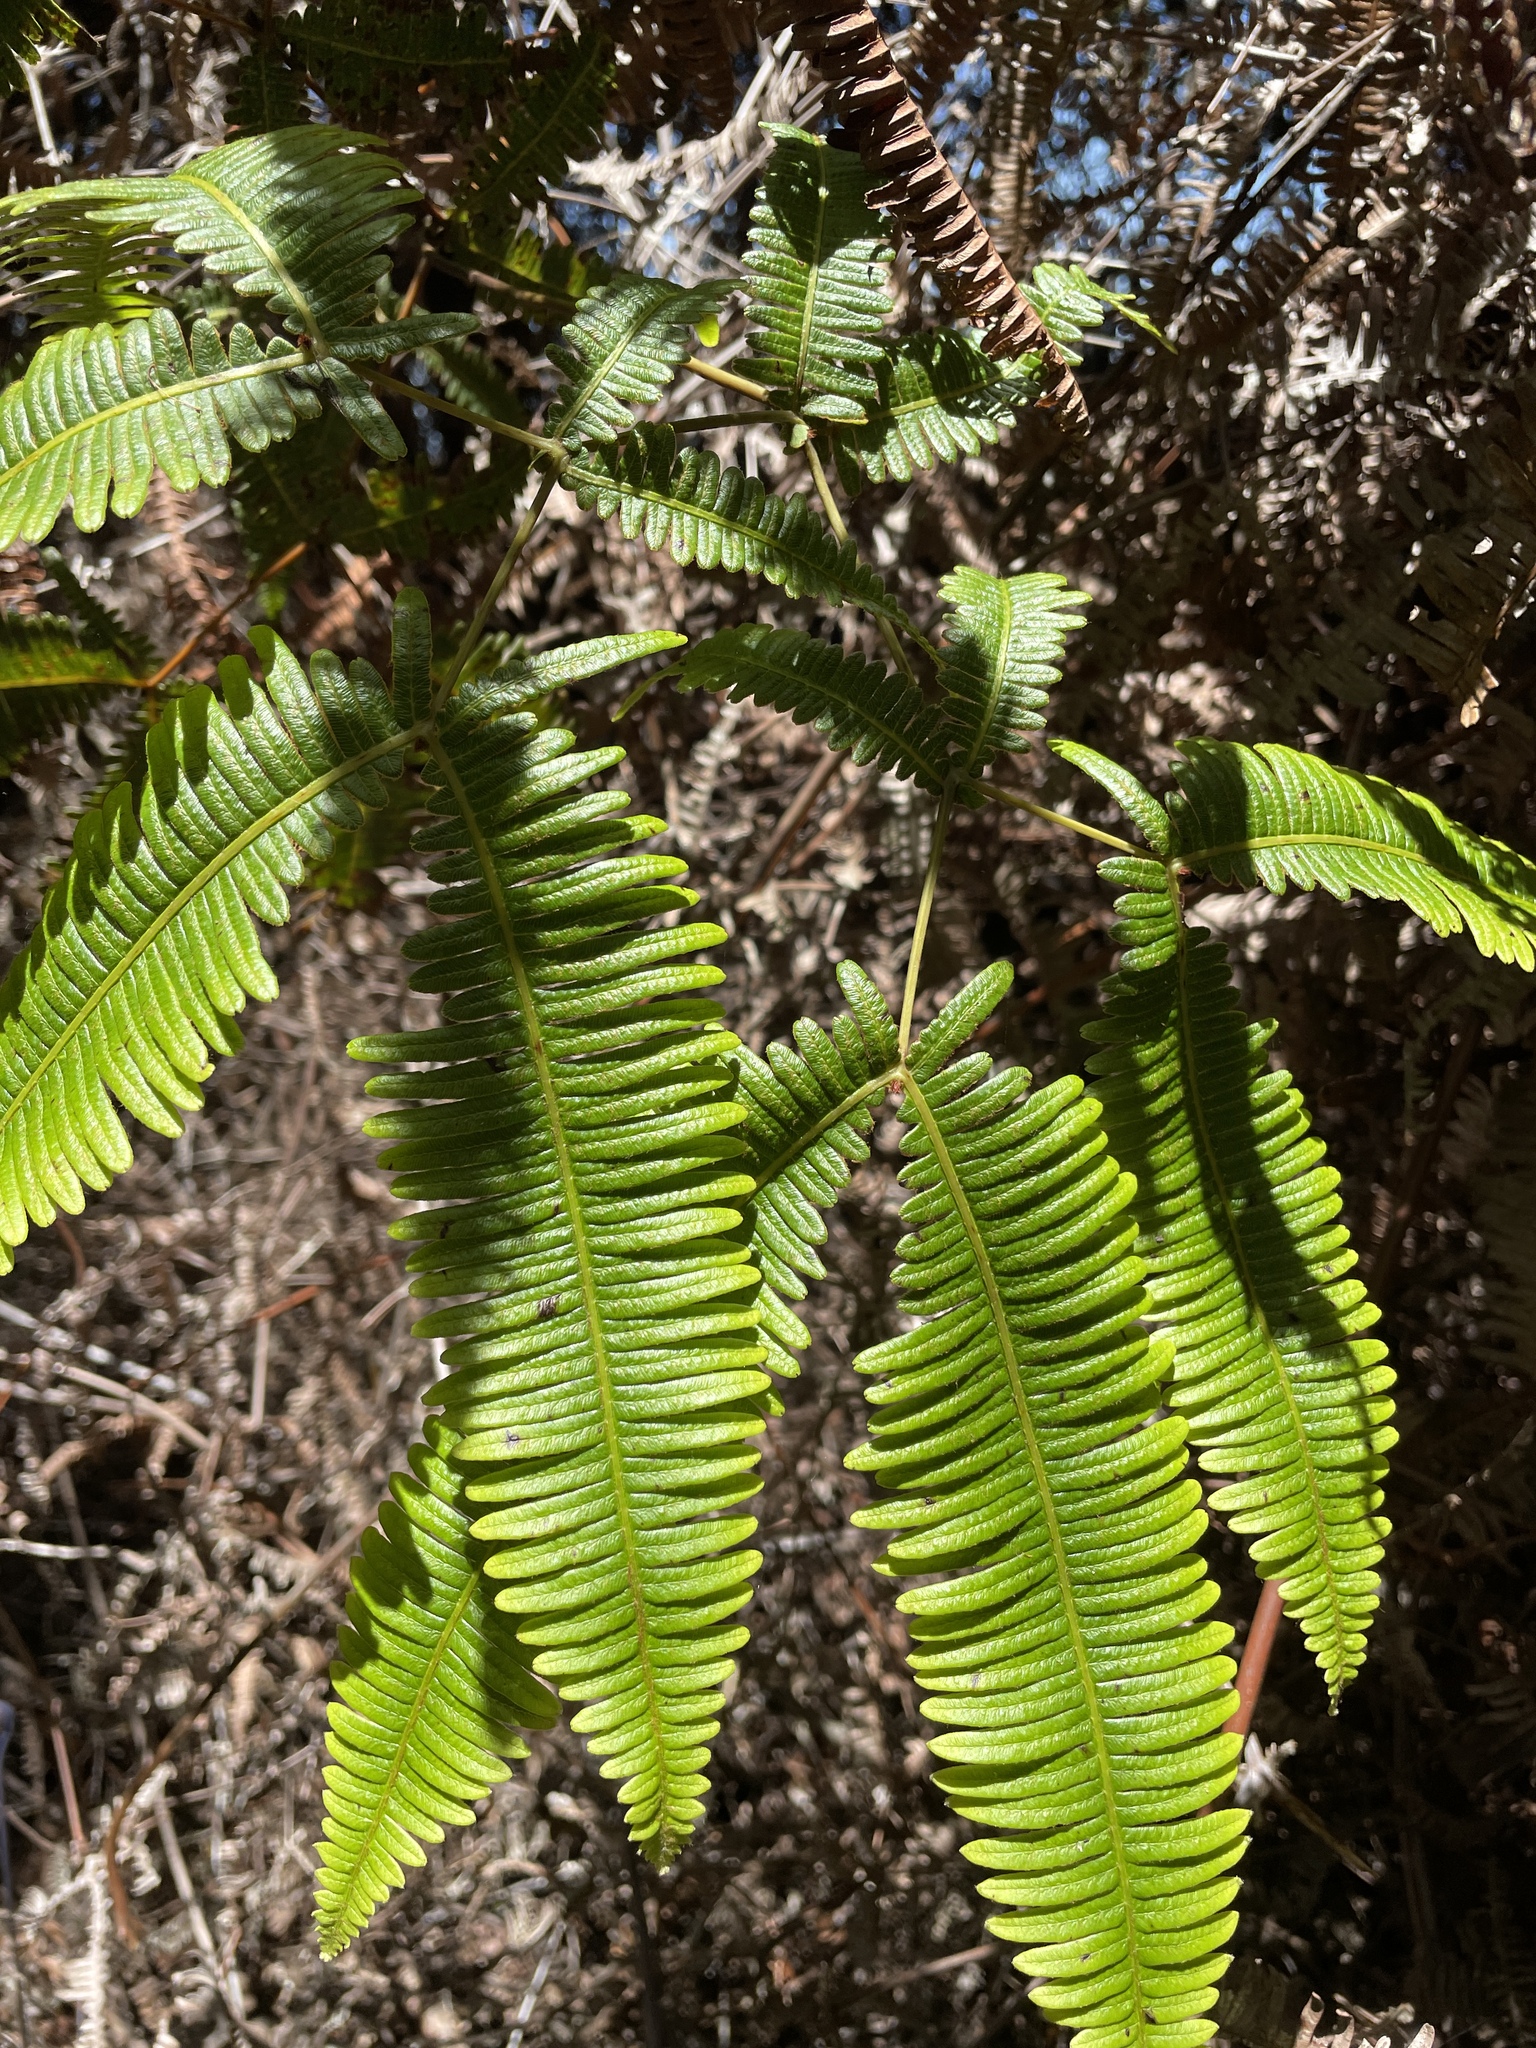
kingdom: Plantae
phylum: Tracheophyta
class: Polypodiopsida
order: Gleicheniales
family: Gleicheniaceae
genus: Dicranopteris
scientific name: Dicranopteris linearis
